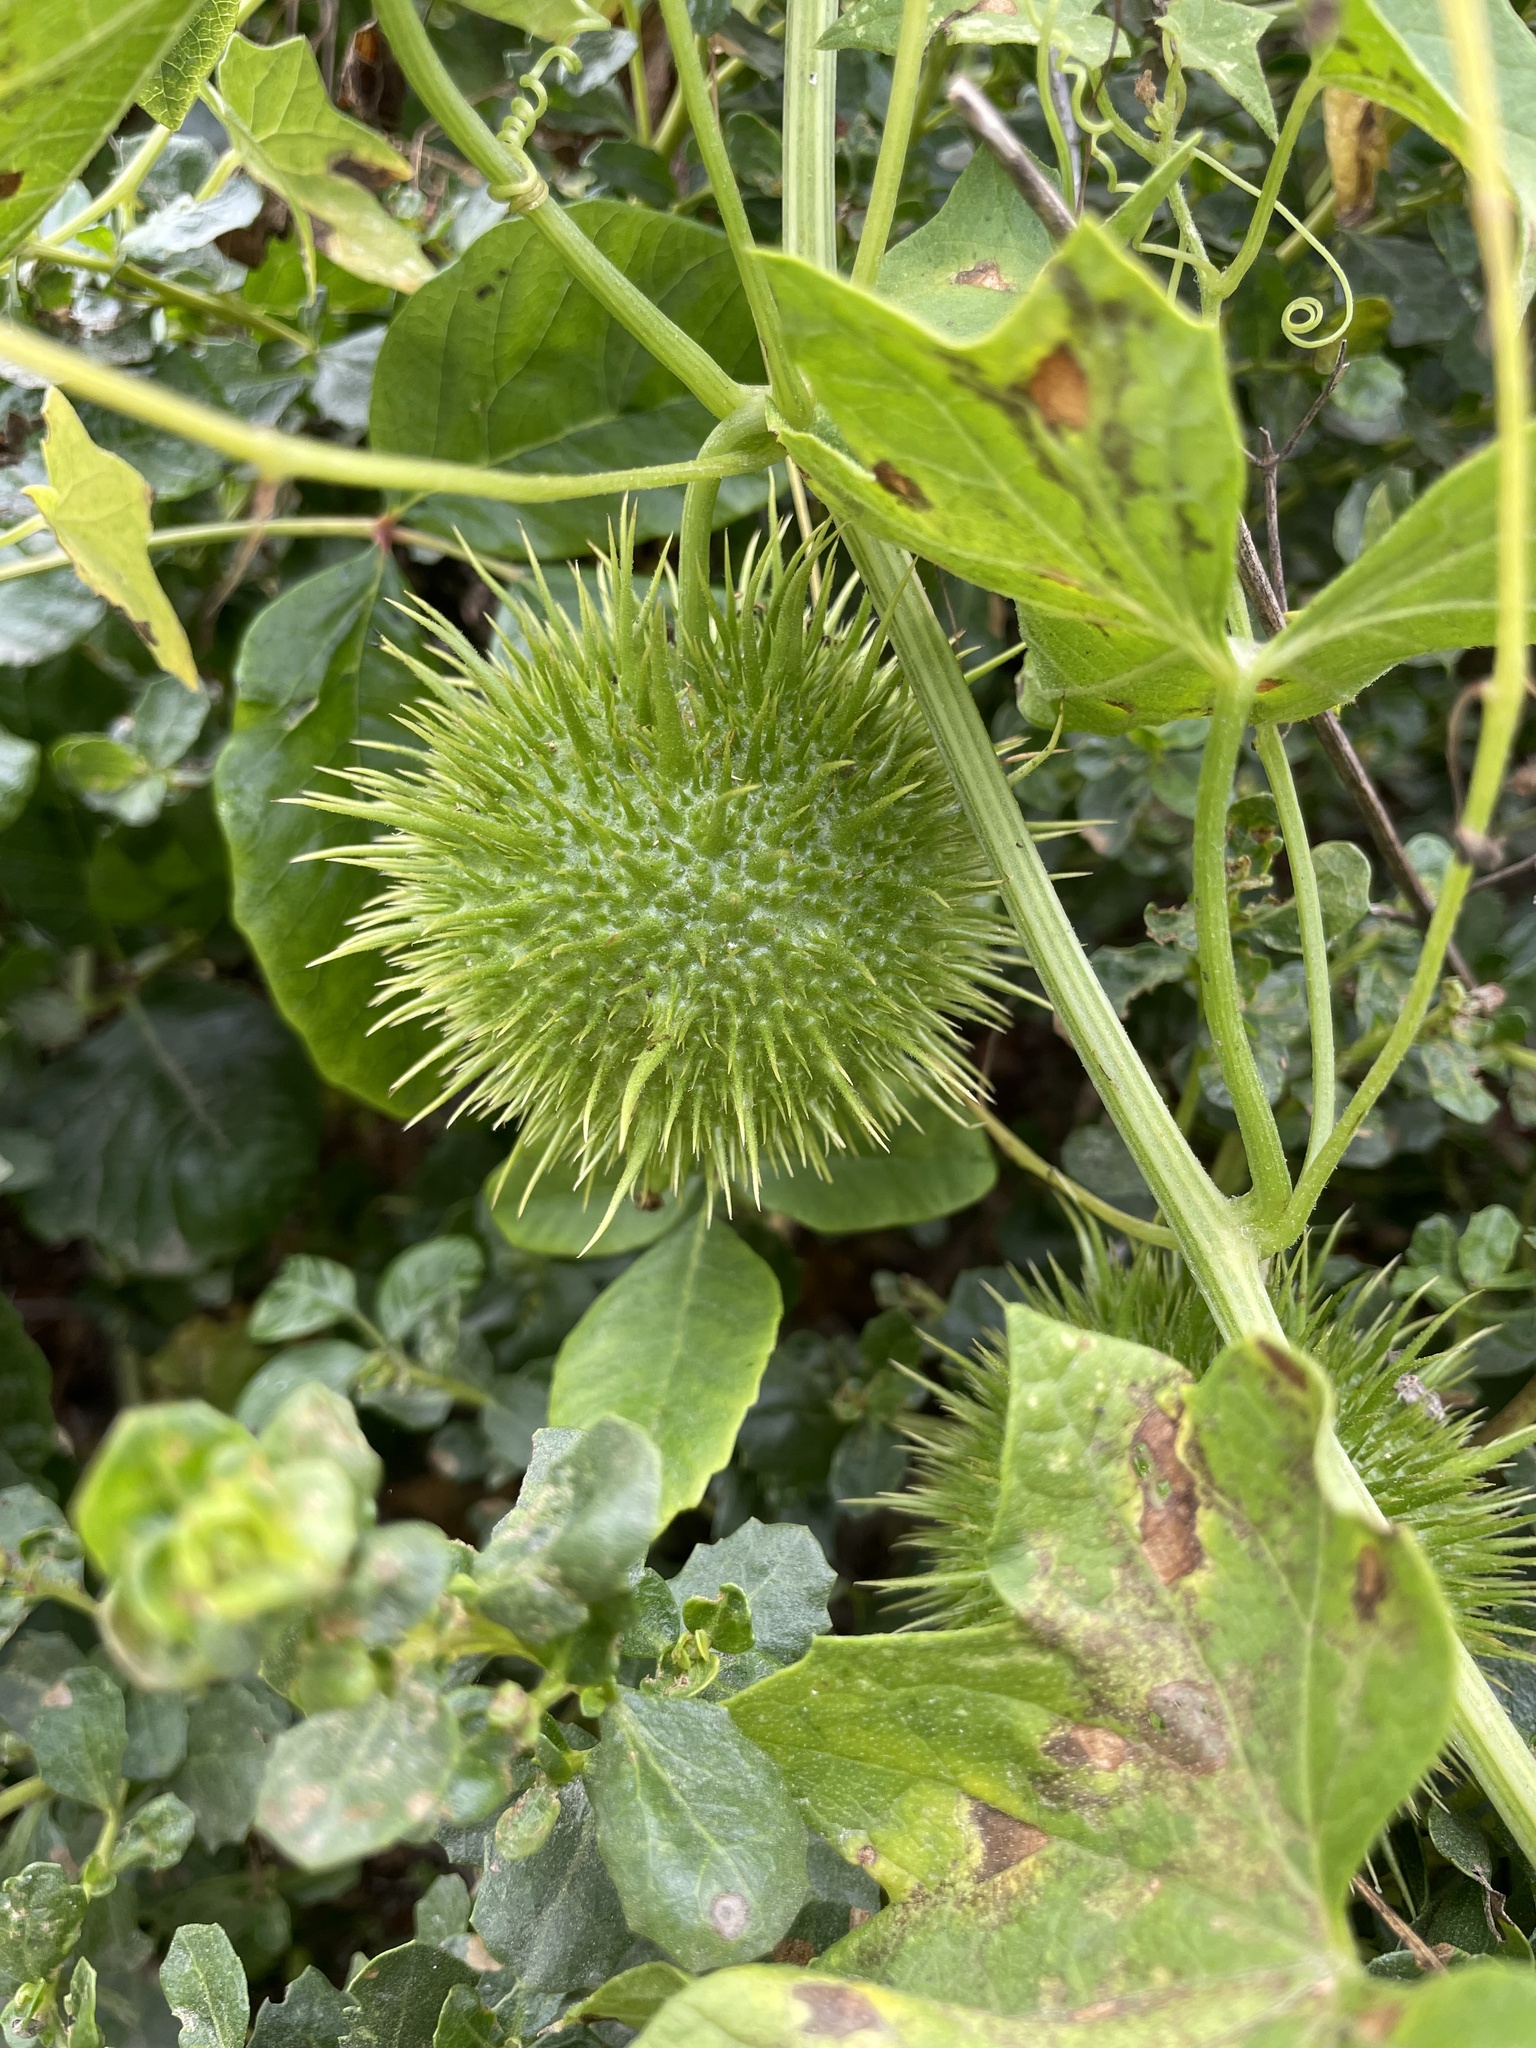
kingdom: Plantae
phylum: Tracheophyta
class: Magnoliopsida
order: Cucurbitales
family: Cucurbitaceae
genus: Marah
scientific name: Marah fabacea
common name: California manroot
